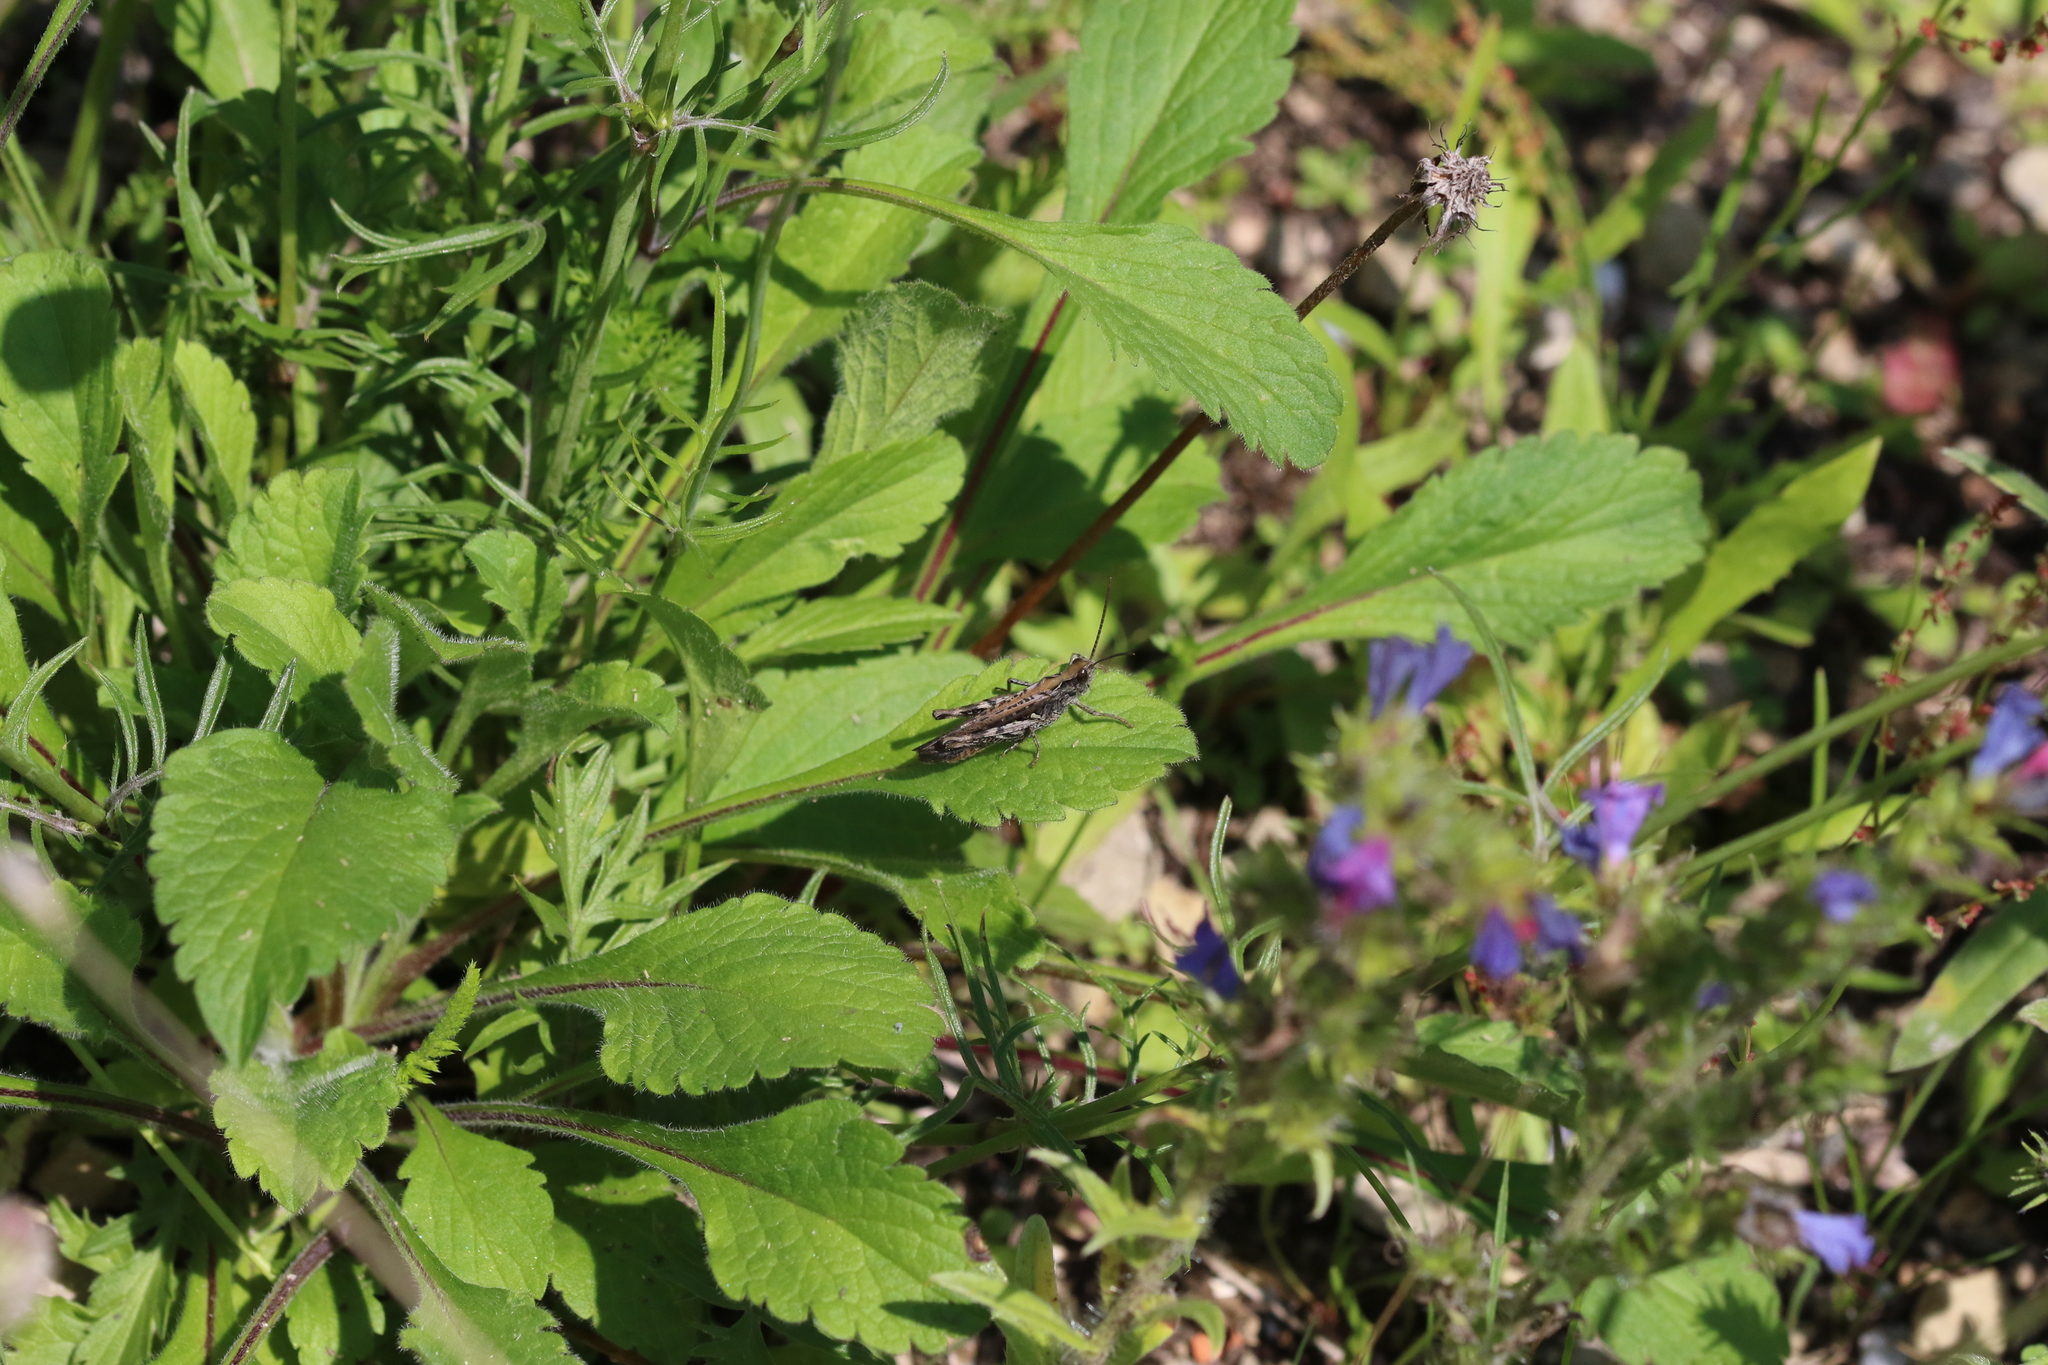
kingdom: Animalia
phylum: Arthropoda
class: Insecta
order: Orthoptera
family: Acrididae
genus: Chorthippus
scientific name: Chorthippus brunneus
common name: Field grasshopper
